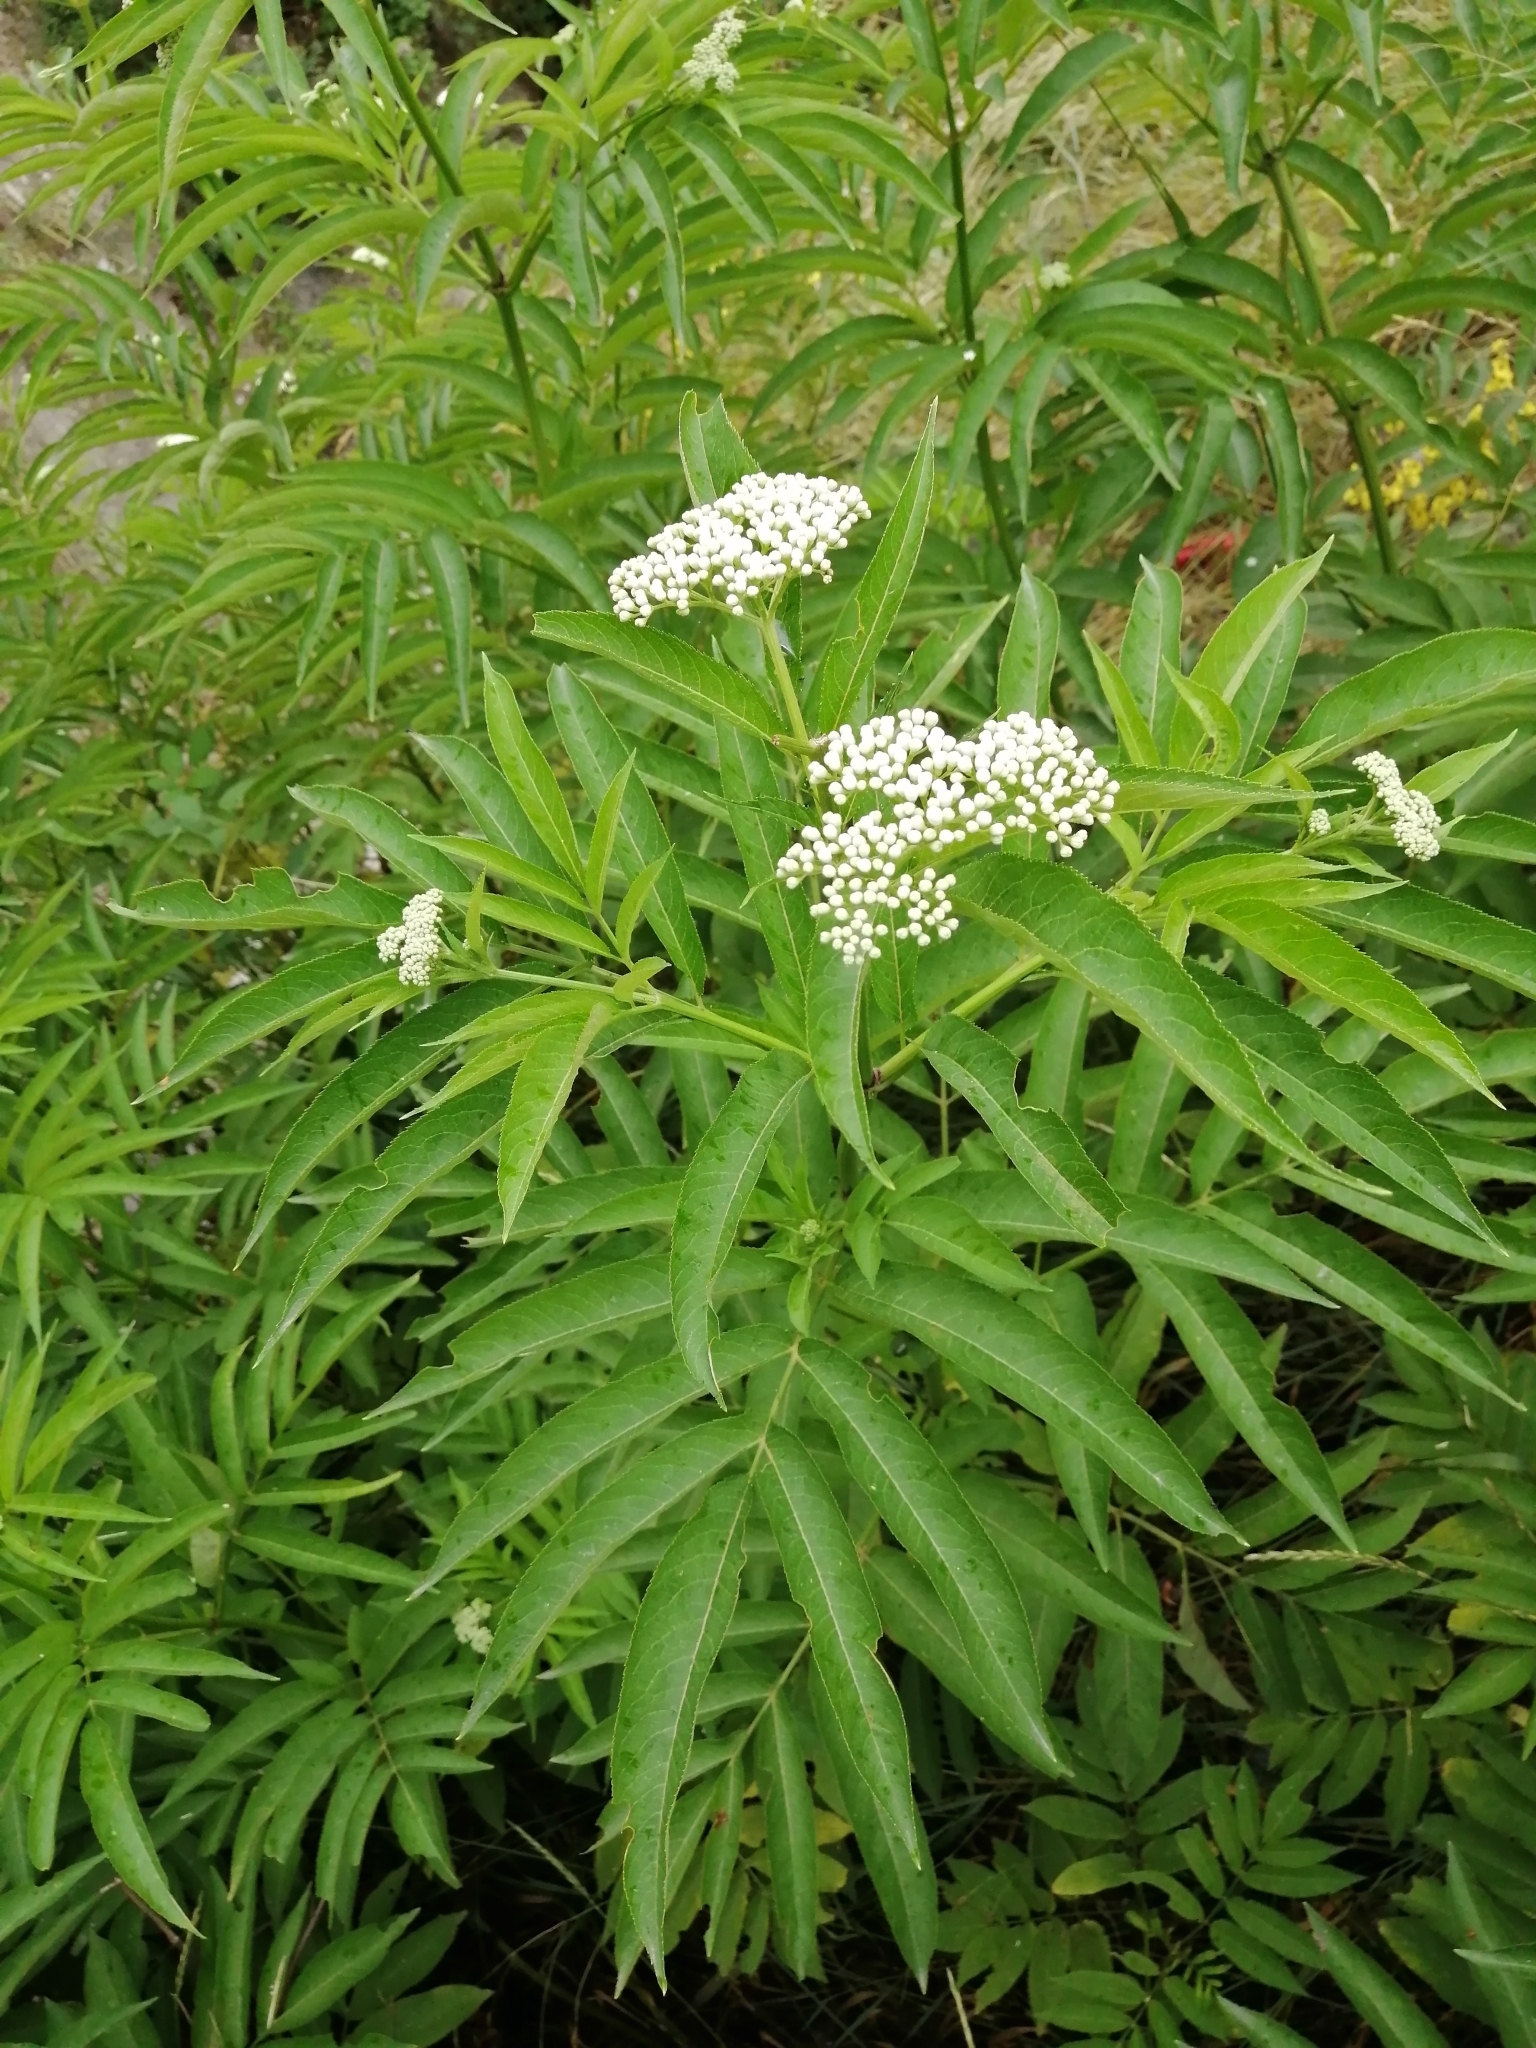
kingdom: Plantae
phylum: Tracheophyta
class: Magnoliopsida
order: Dipsacales
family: Viburnaceae
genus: Sambucus
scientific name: Sambucus ebulus
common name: Dwarf elder
